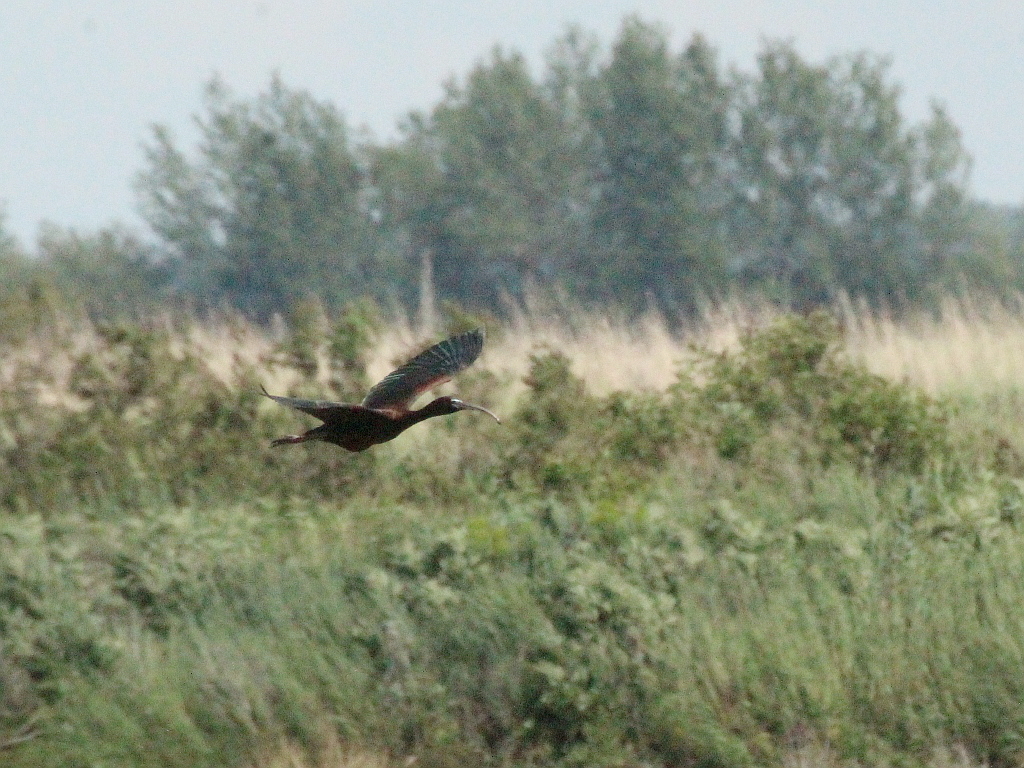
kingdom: Animalia
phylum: Chordata
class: Aves
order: Pelecaniformes
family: Threskiornithidae
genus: Plegadis
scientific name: Plegadis falcinellus
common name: Glossy ibis
